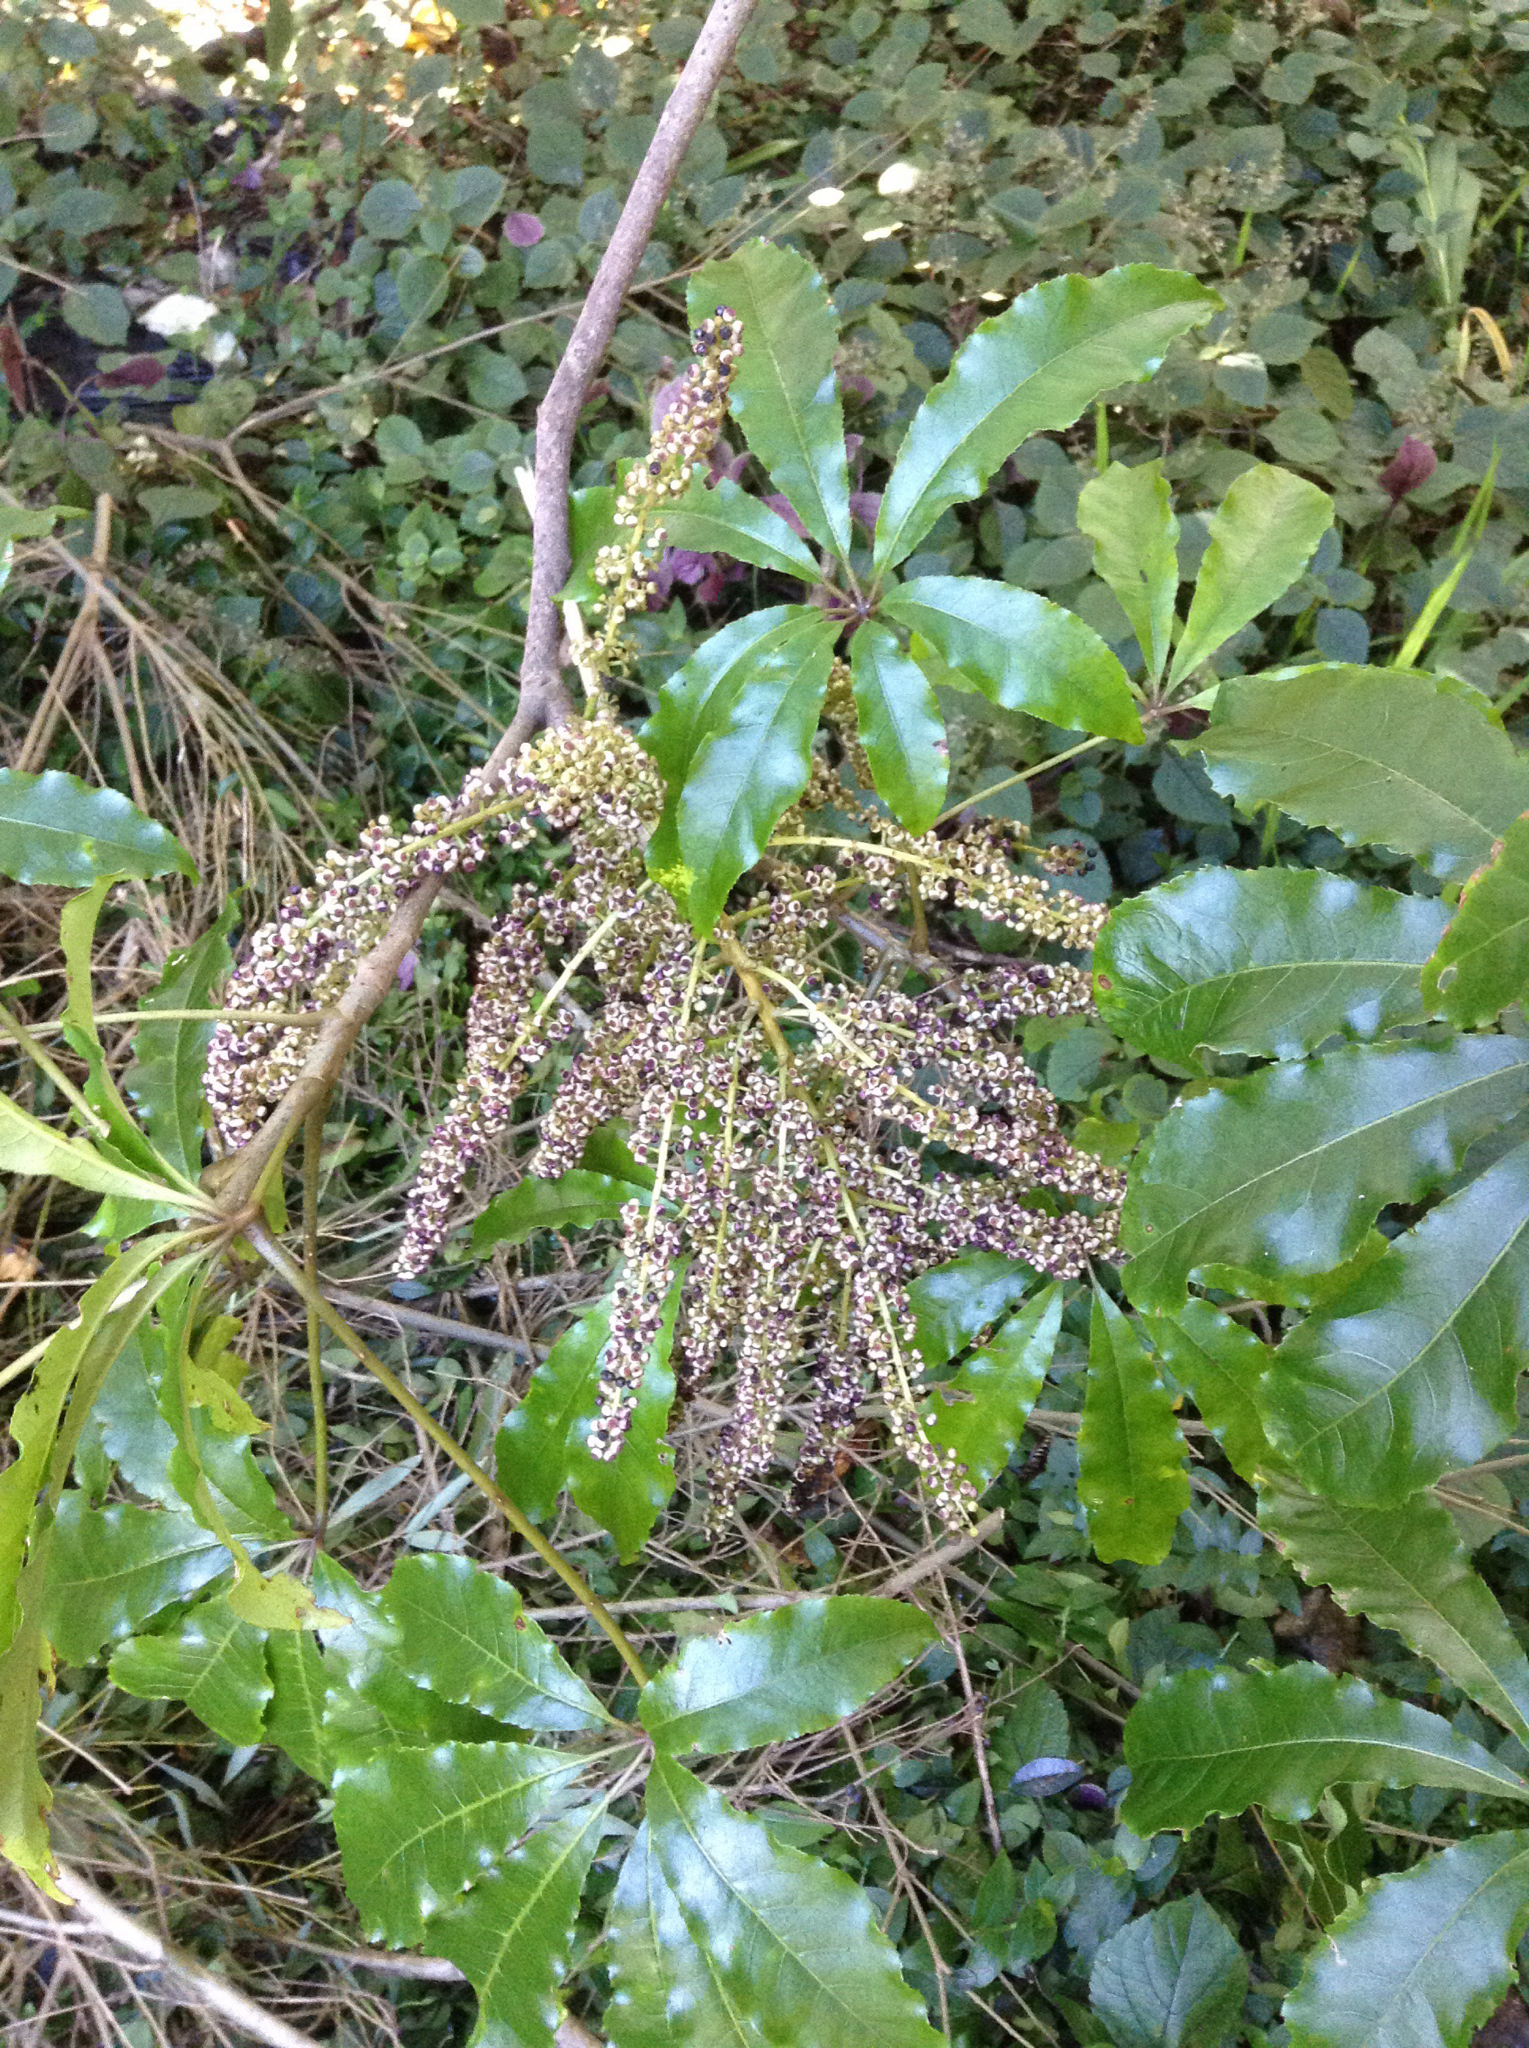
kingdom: Plantae
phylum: Tracheophyta
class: Magnoliopsida
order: Apiales
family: Araliaceae
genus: Schefflera
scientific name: Schefflera digitata
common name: Pate
